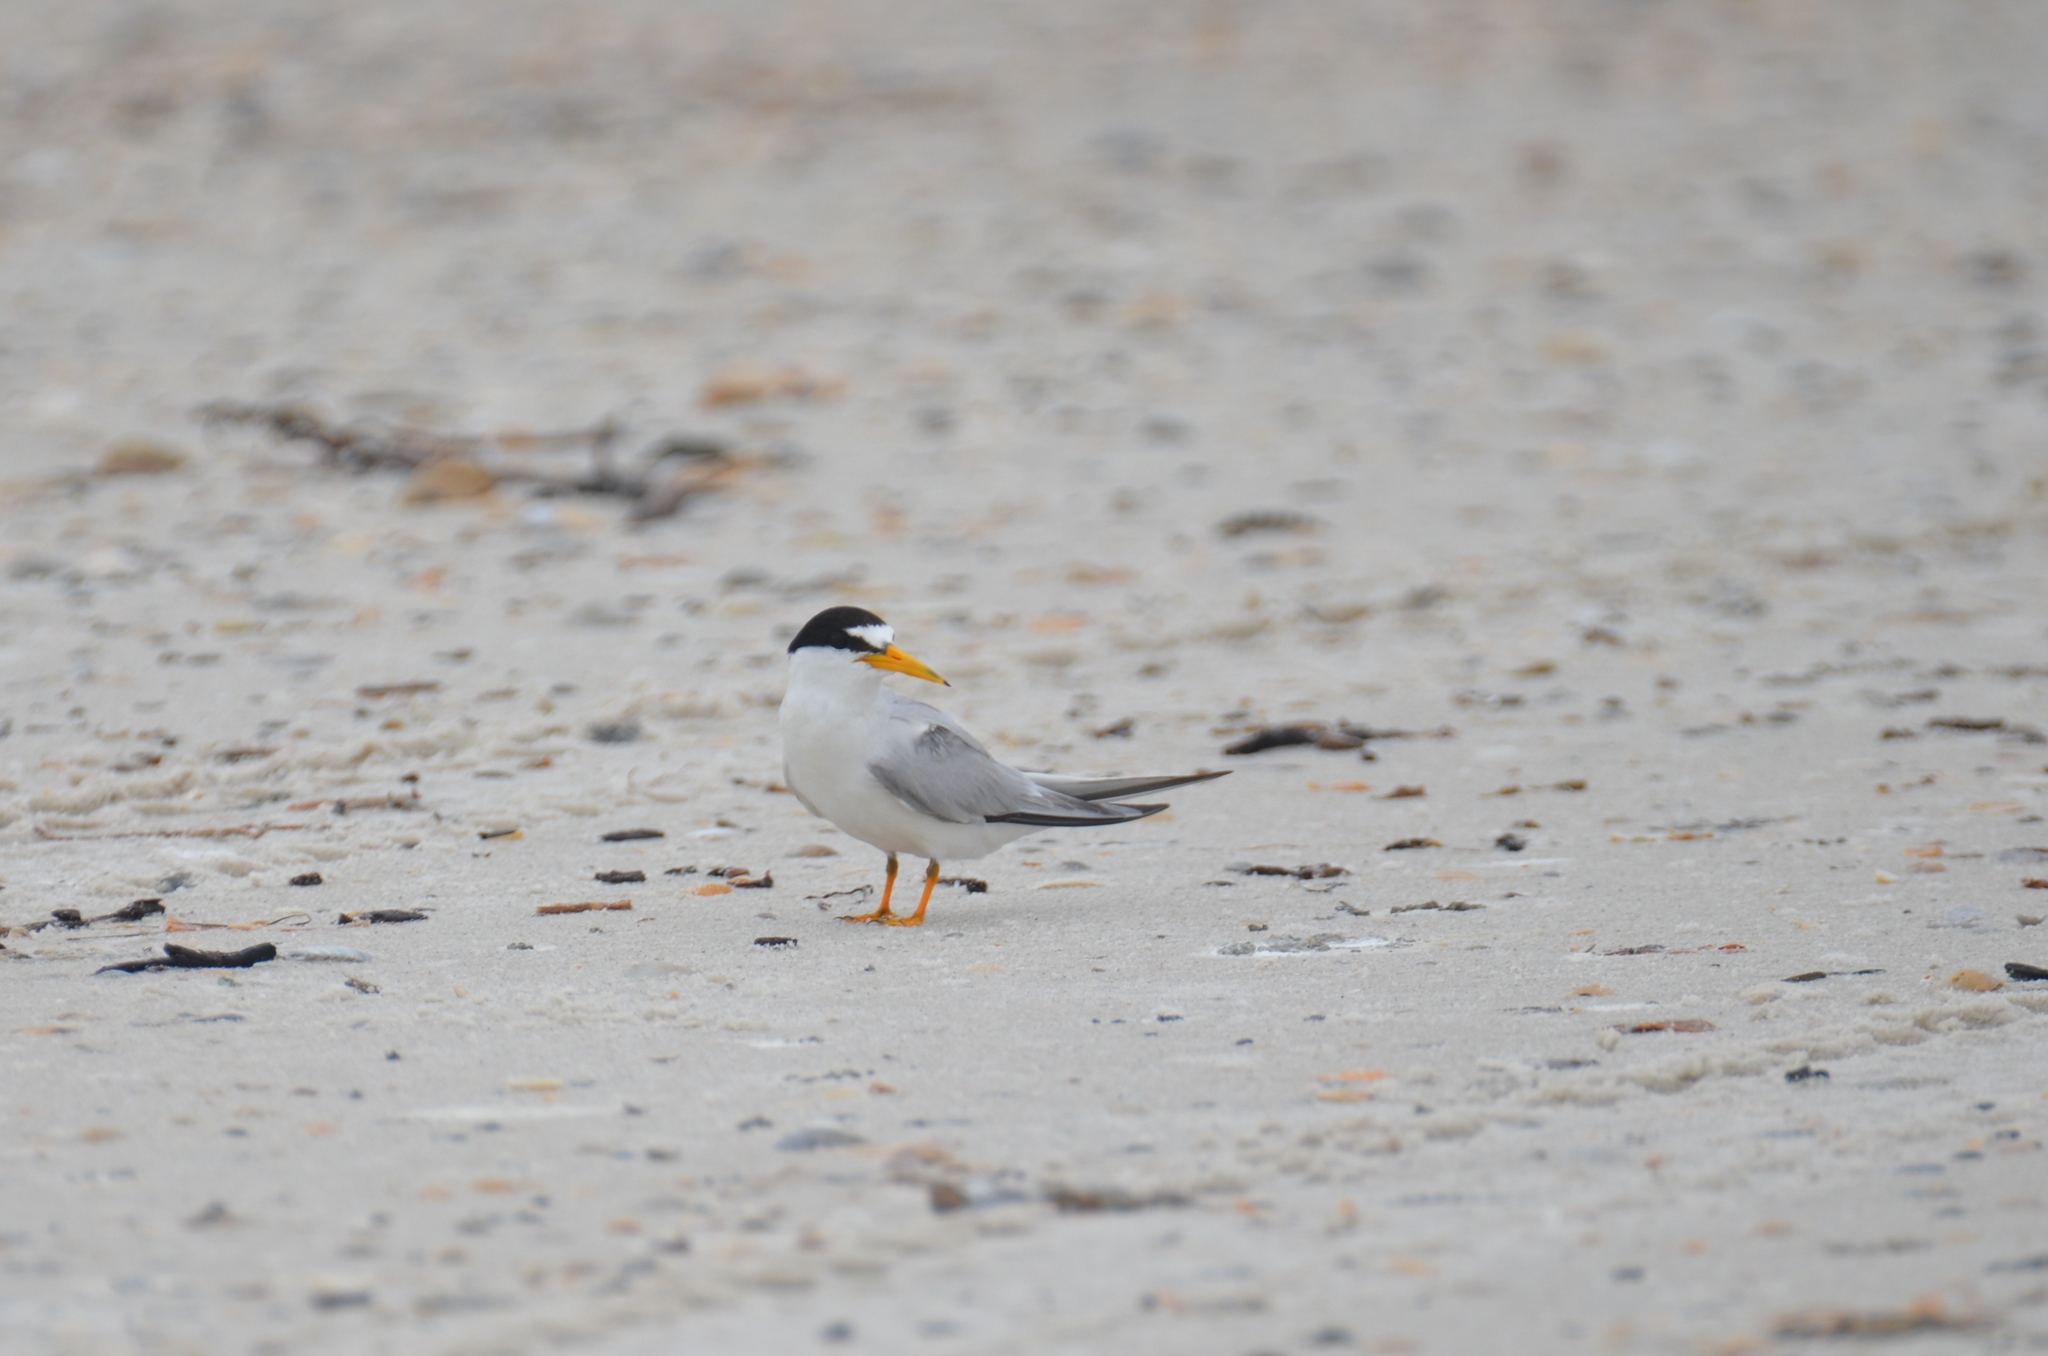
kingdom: Animalia
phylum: Chordata
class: Aves
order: Charadriiformes
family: Laridae
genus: Sternula
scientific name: Sternula antillarum
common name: Least tern
